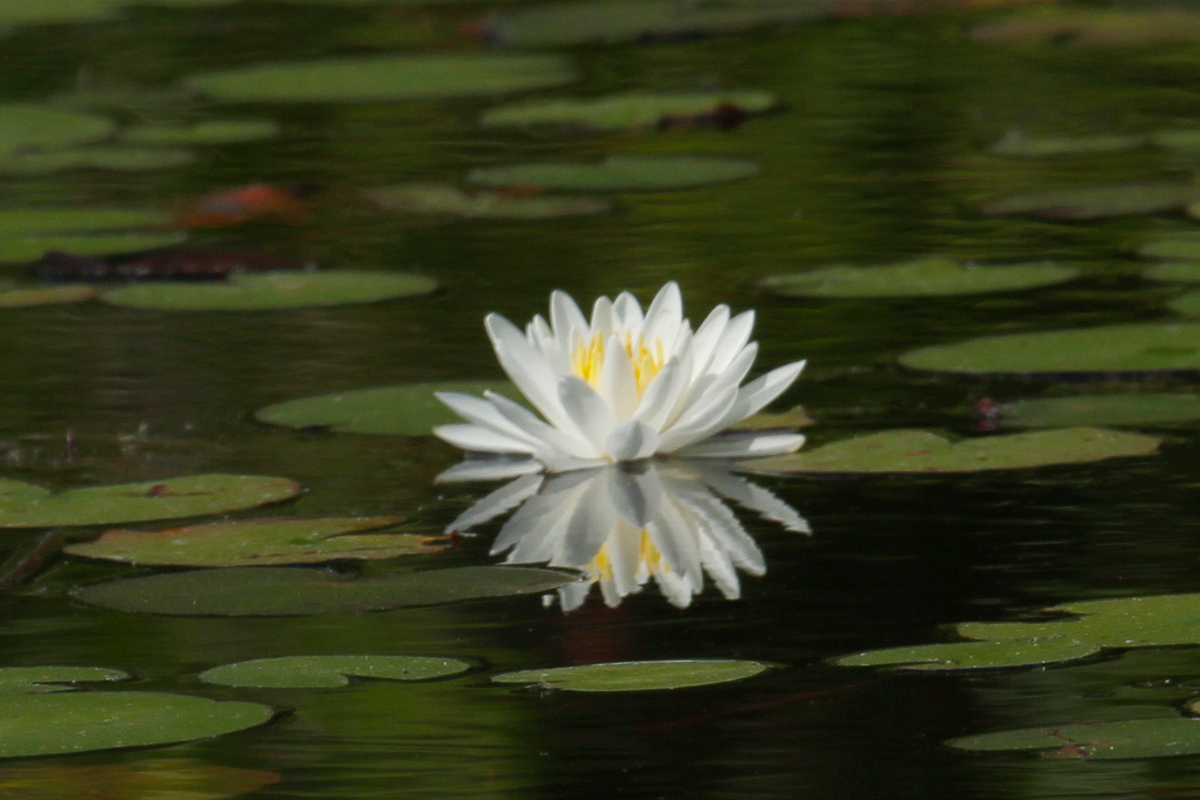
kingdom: Plantae
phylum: Tracheophyta
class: Magnoliopsida
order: Nymphaeales
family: Nymphaeaceae
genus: Nymphaea
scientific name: Nymphaea odorata
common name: Fragrant water-lily
